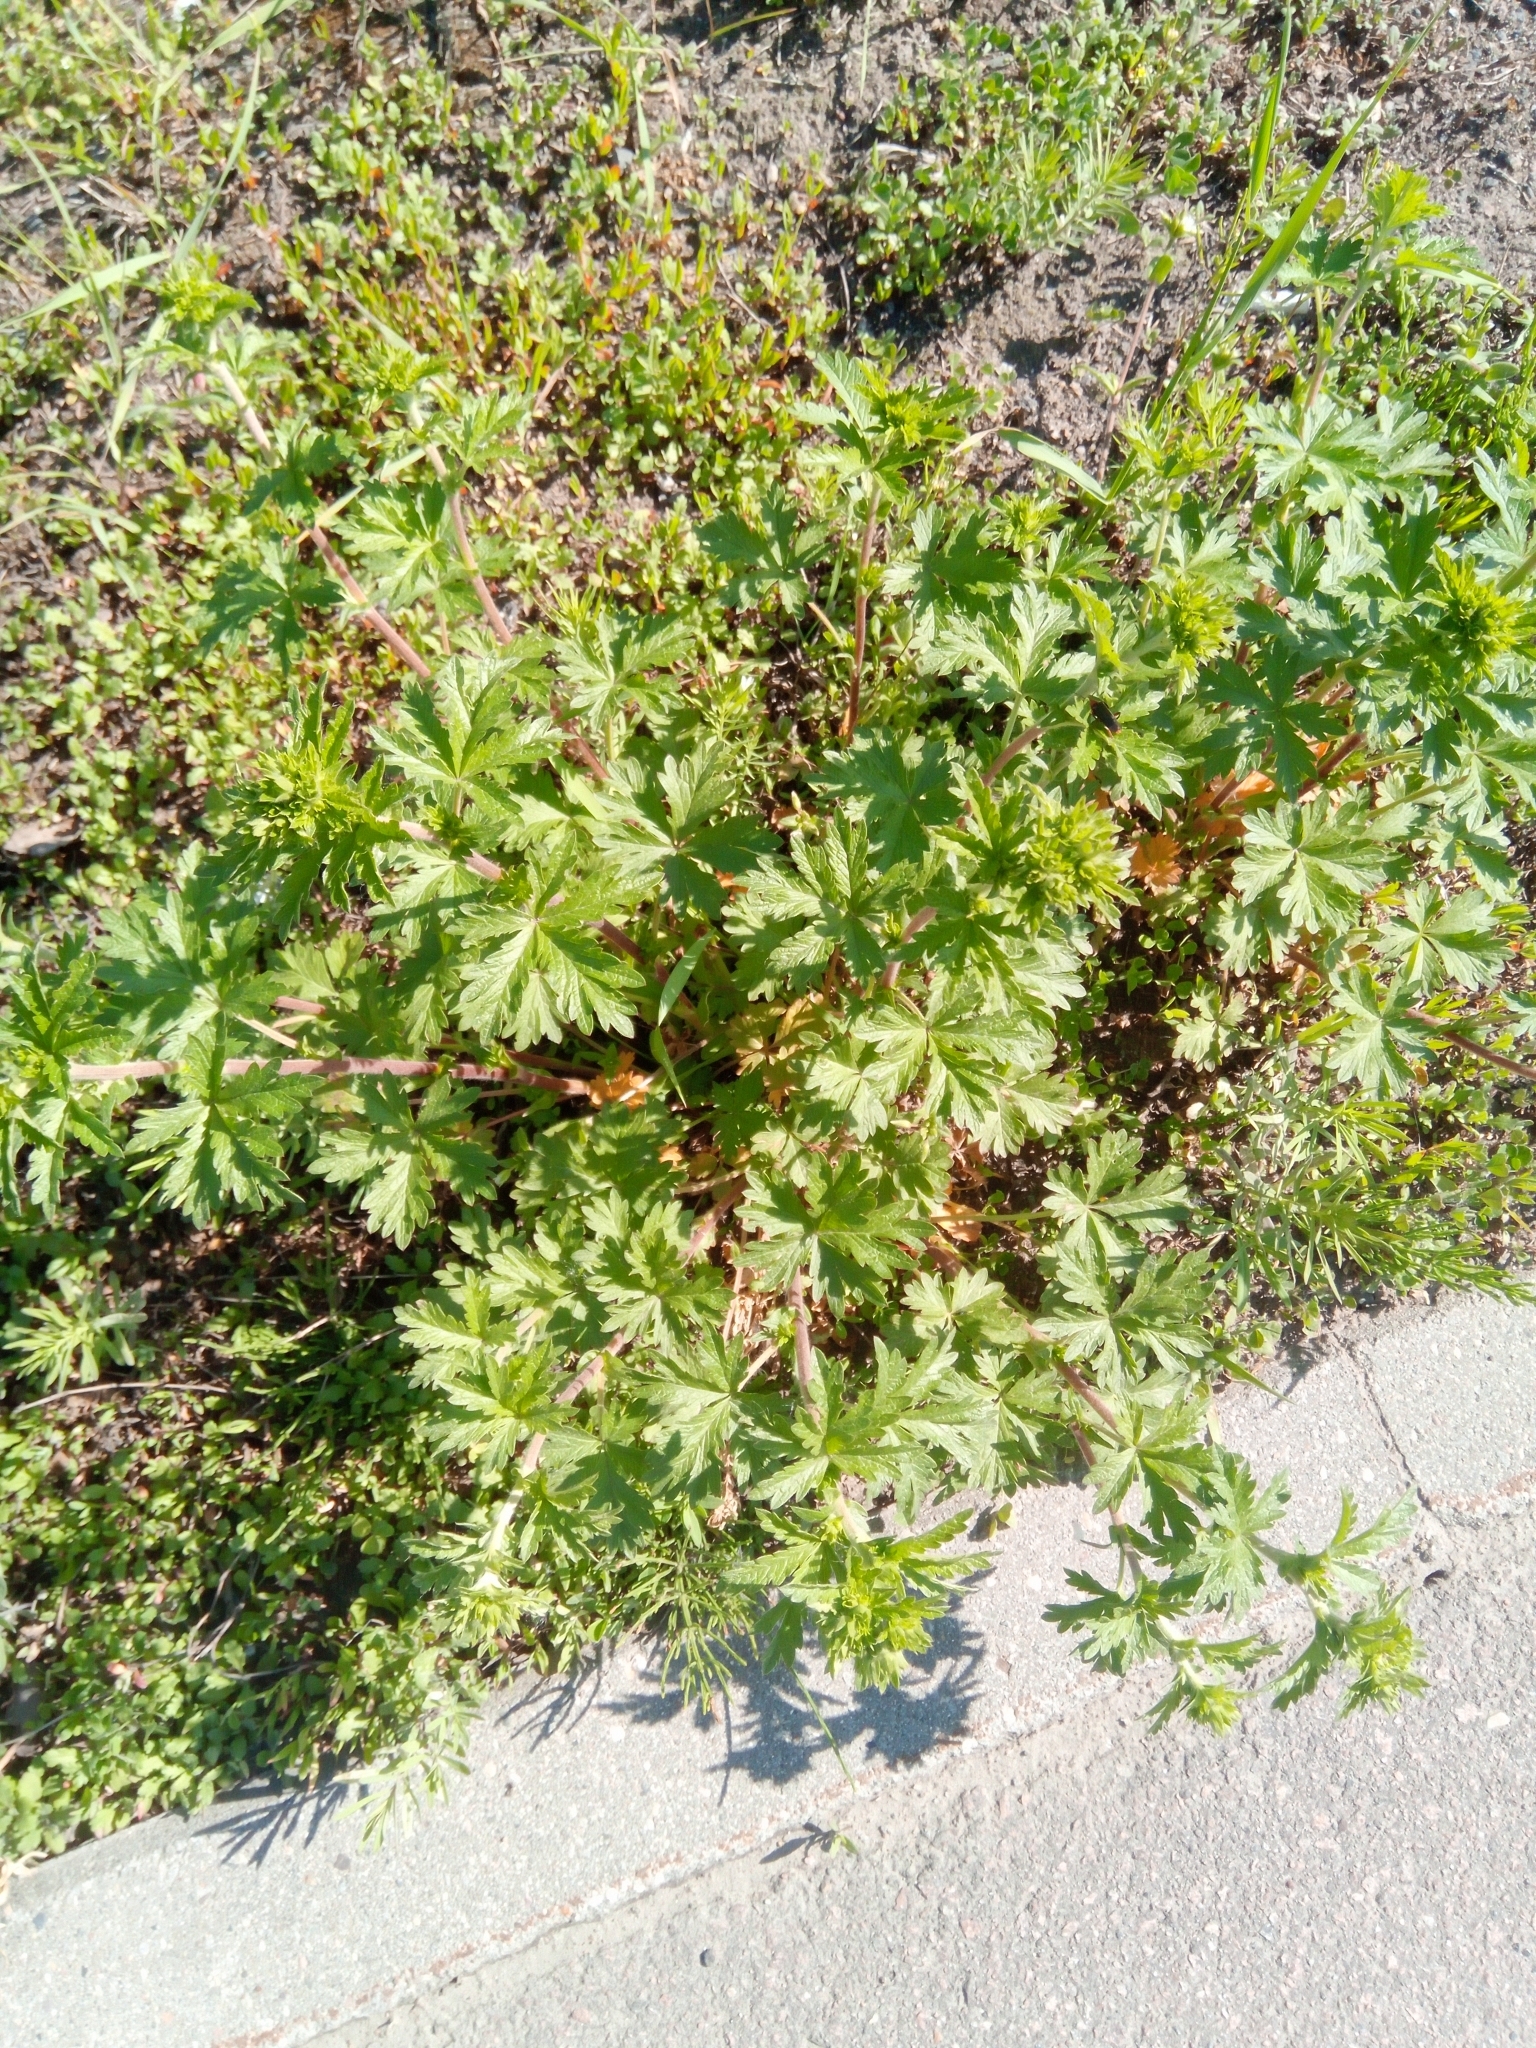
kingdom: Plantae
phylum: Tracheophyta
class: Magnoliopsida
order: Rosales
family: Rosaceae
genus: Potentilla
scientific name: Potentilla intermedia
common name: Downy cinquefoil
